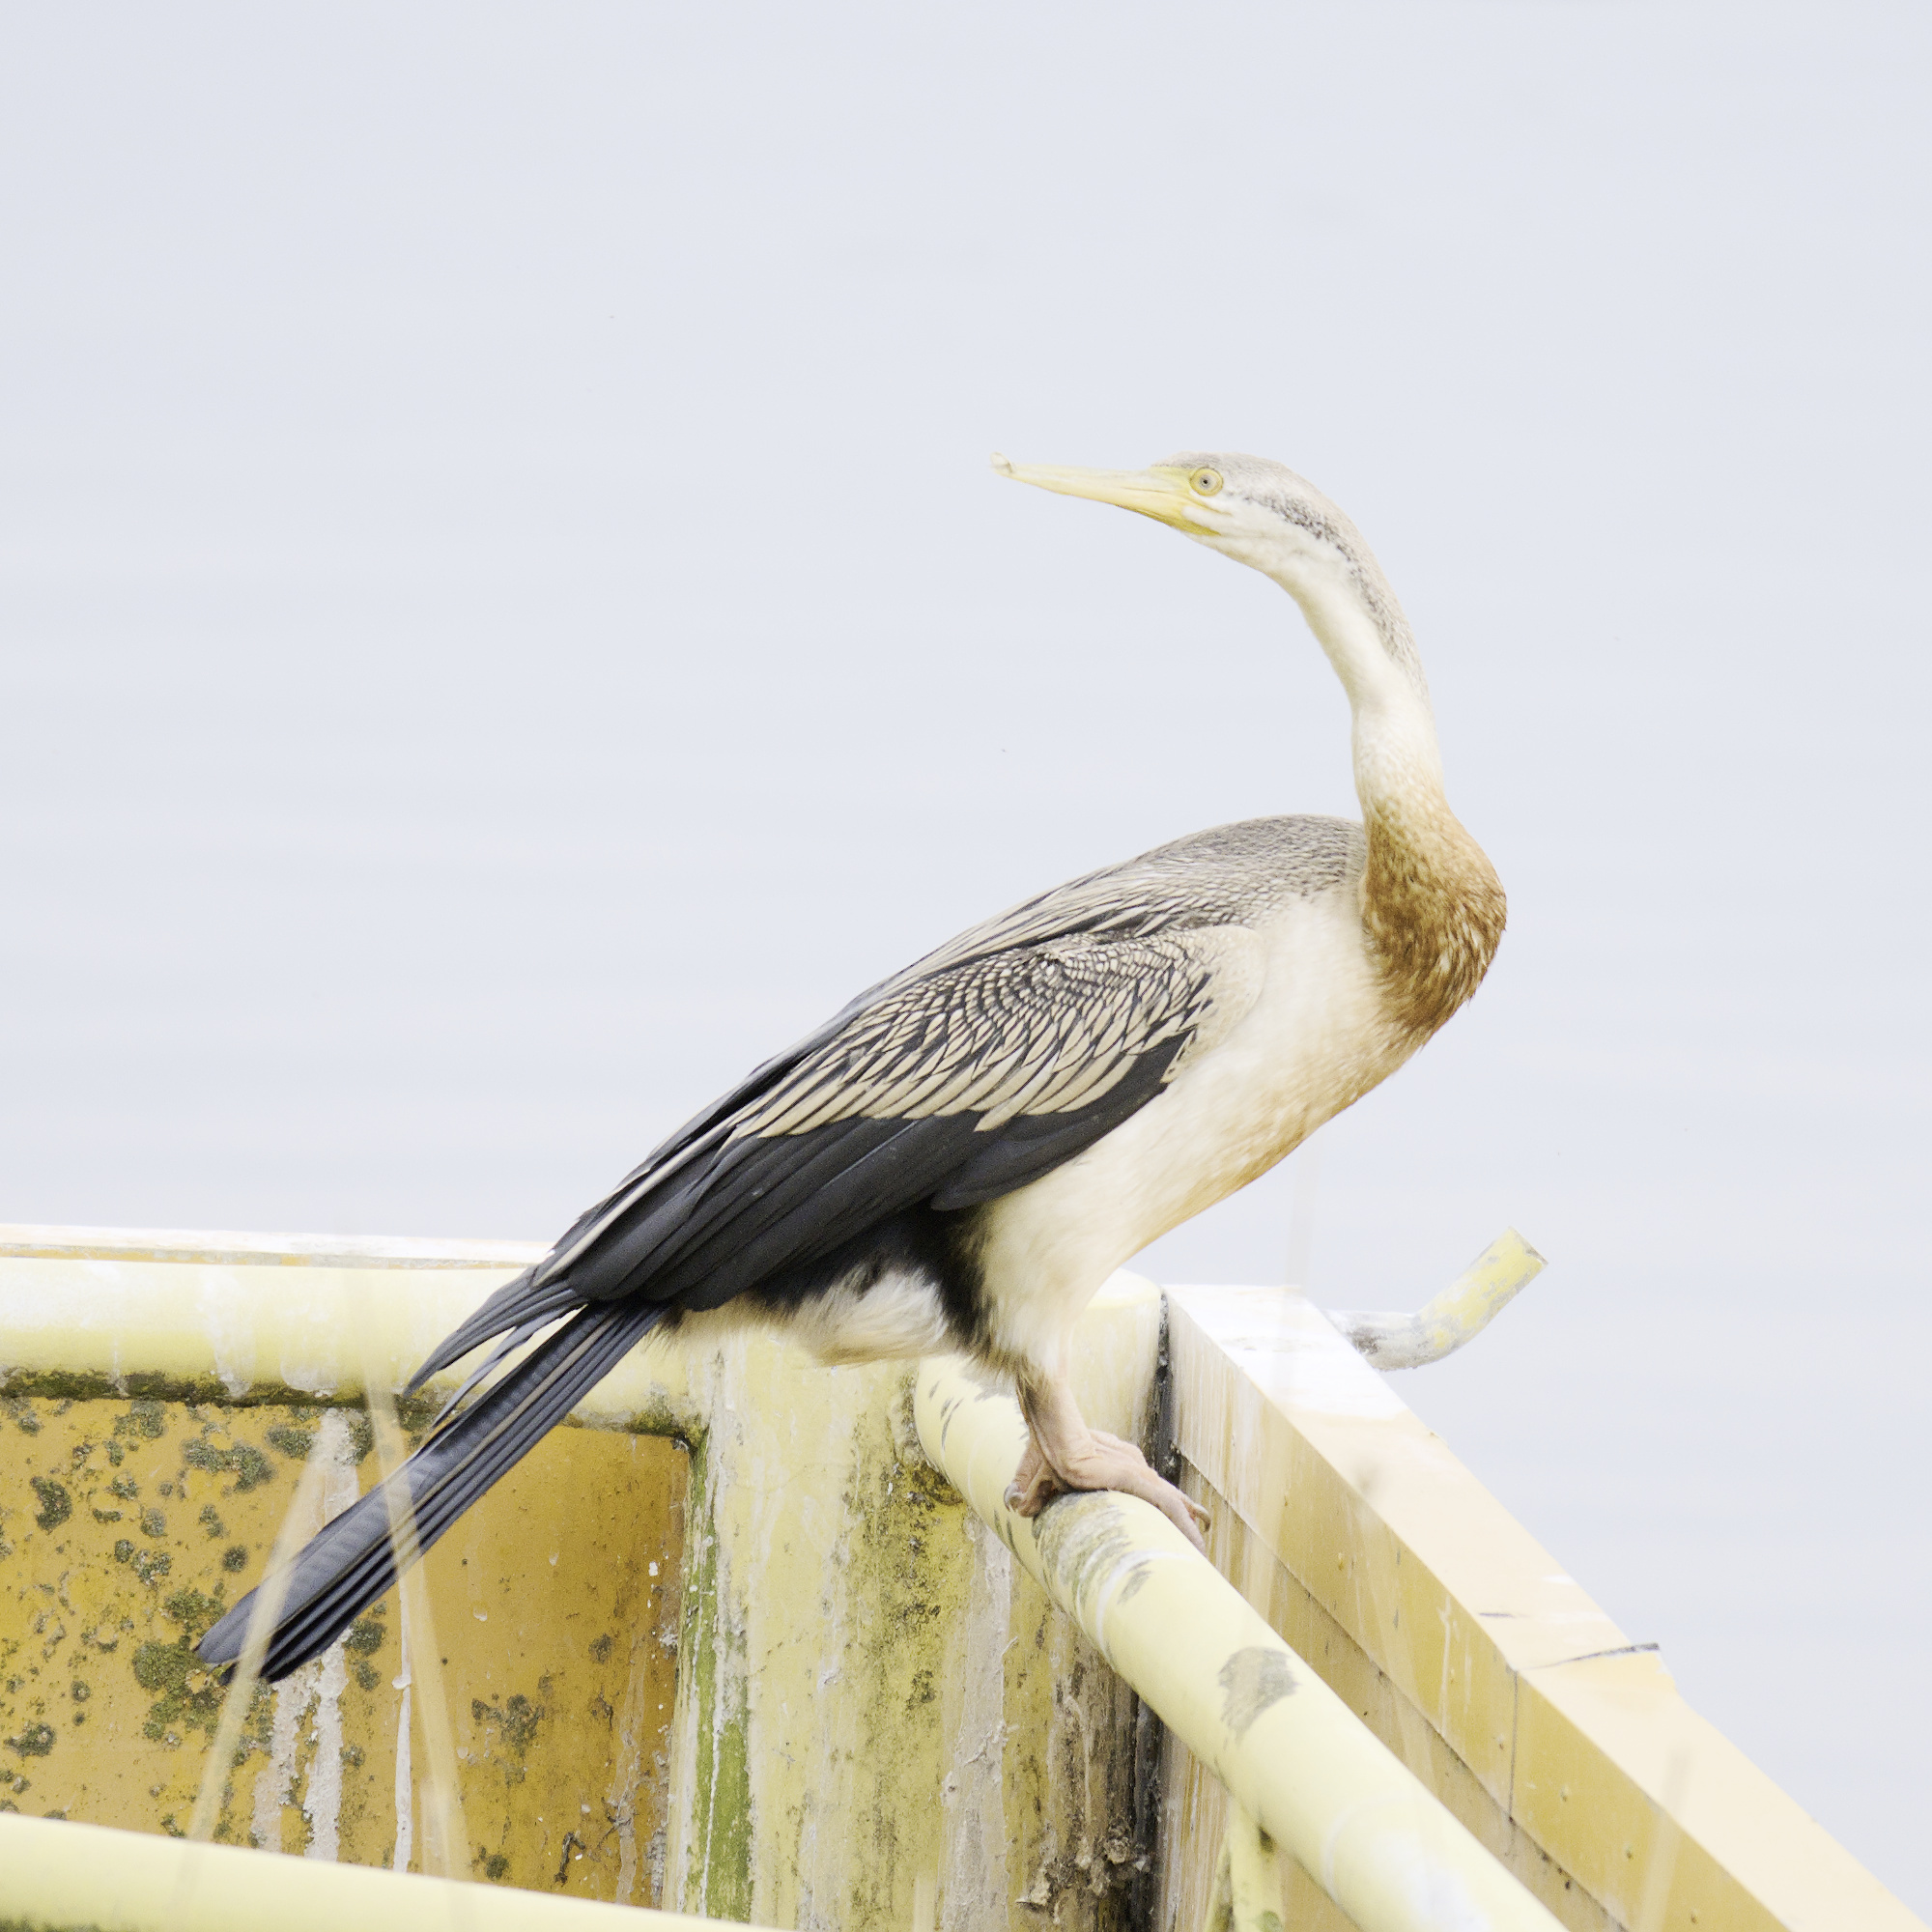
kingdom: Animalia
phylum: Chordata
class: Aves
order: Suliformes
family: Anhingidae
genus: Anhinga
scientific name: Anhinga novaehollandiae
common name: Australasian darter
